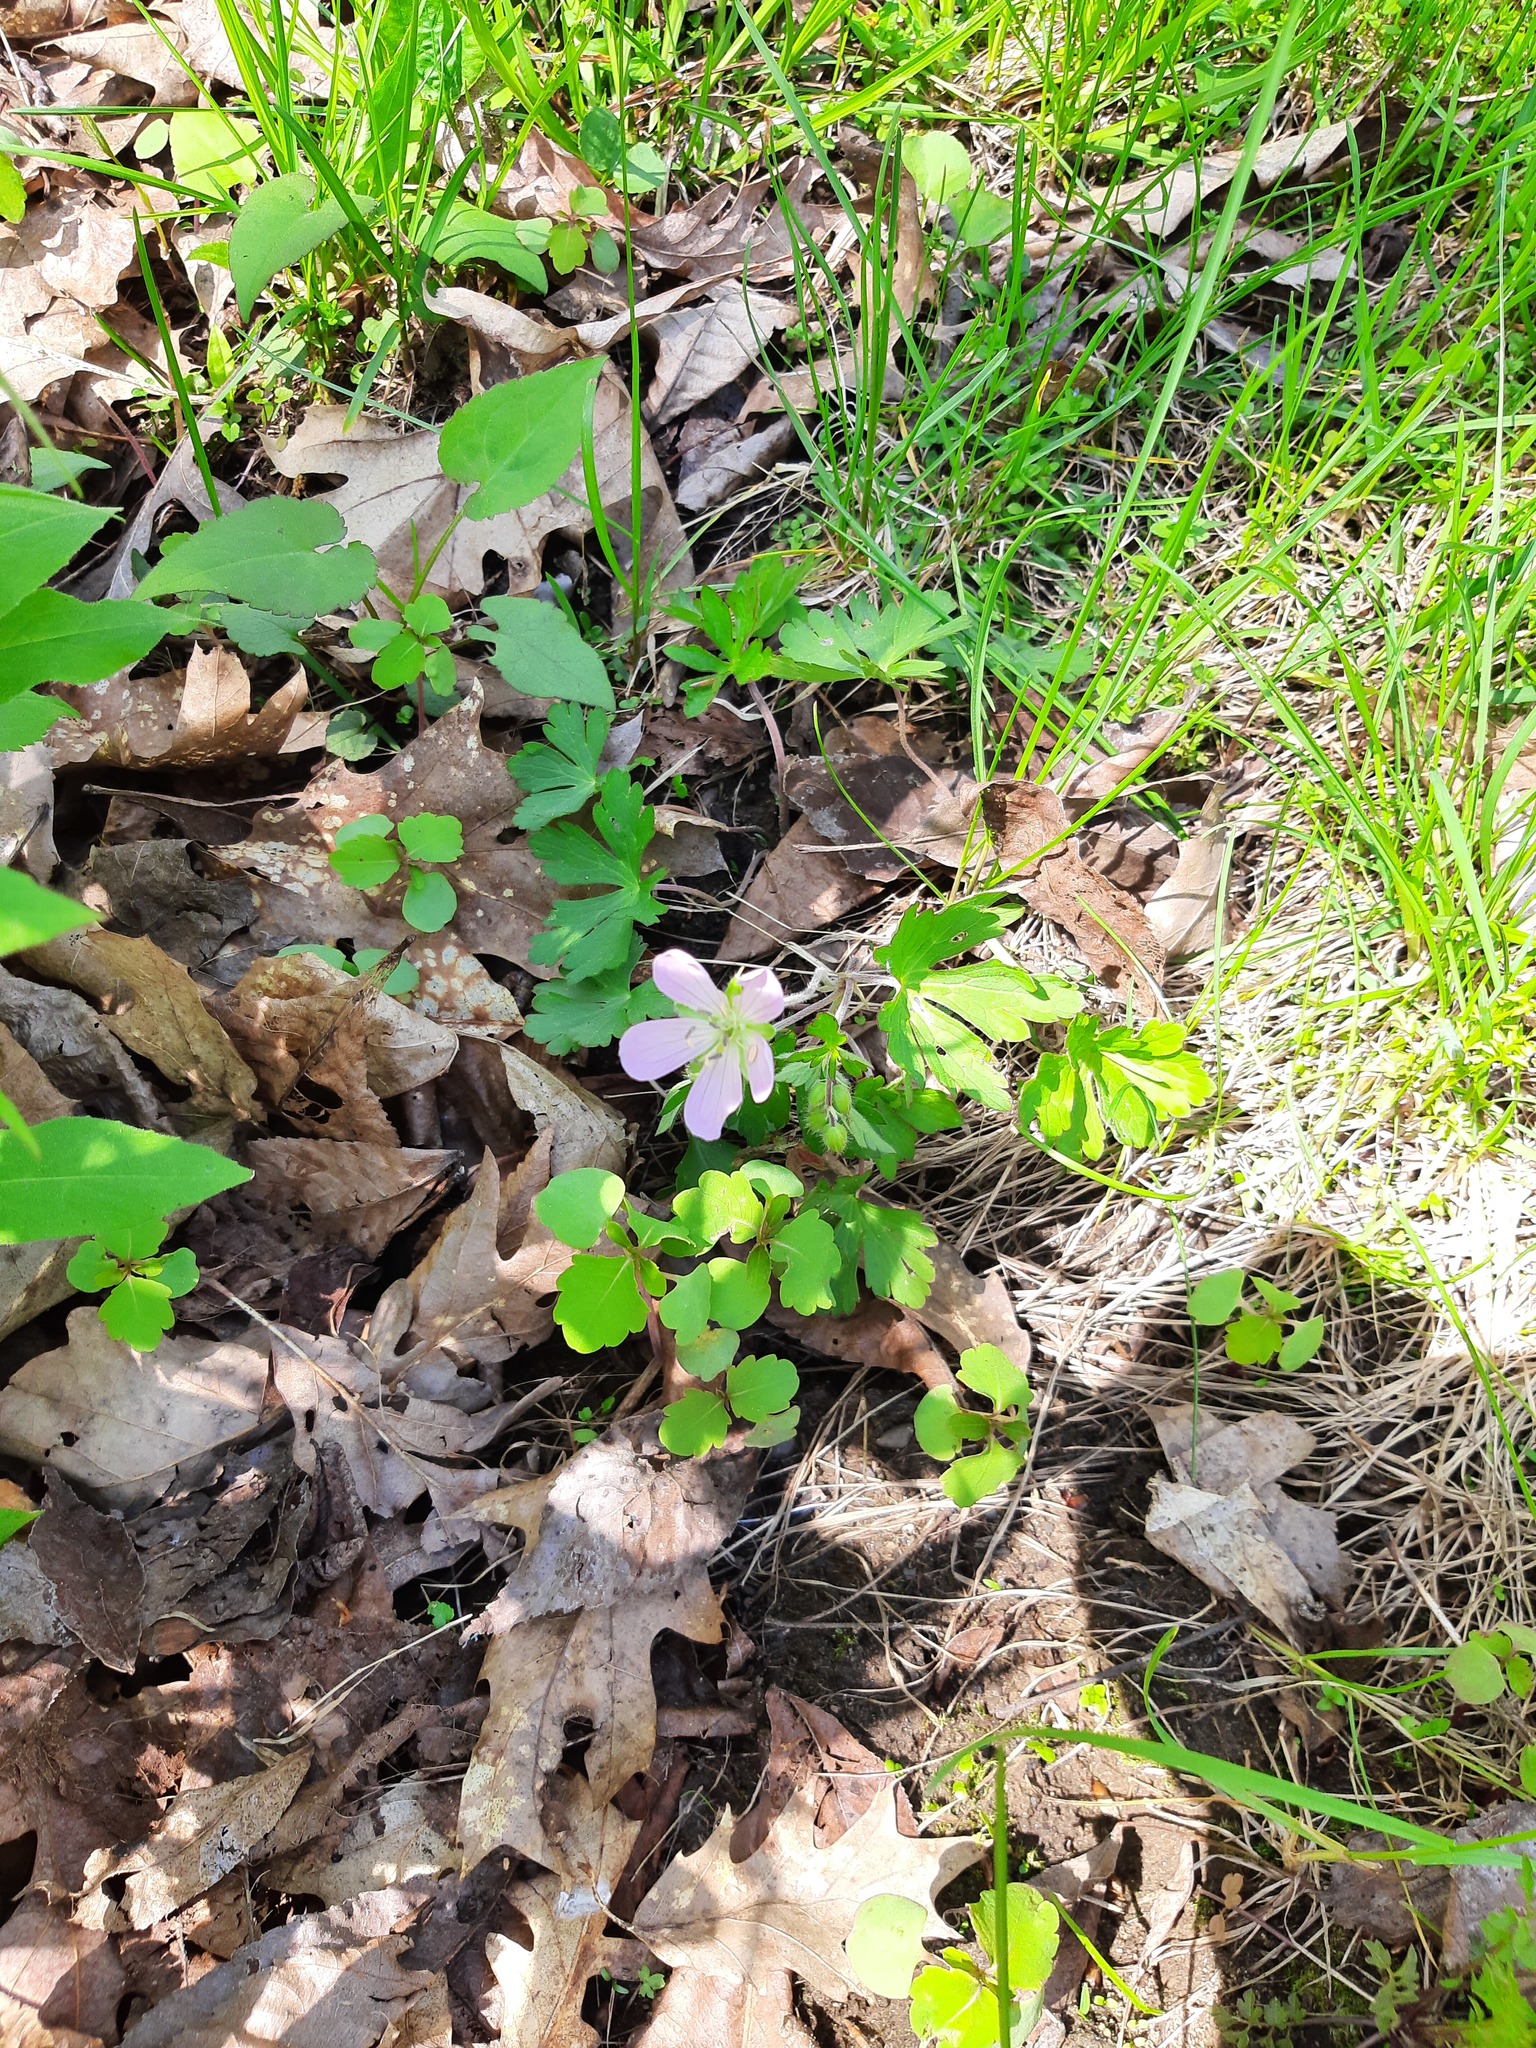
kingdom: Plantae
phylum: Tracheophyta
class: Magnoliopsida
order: Geraniales
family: Geraniaceae
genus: Geranium
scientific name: Geranium maculatum
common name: Spotted geranium
